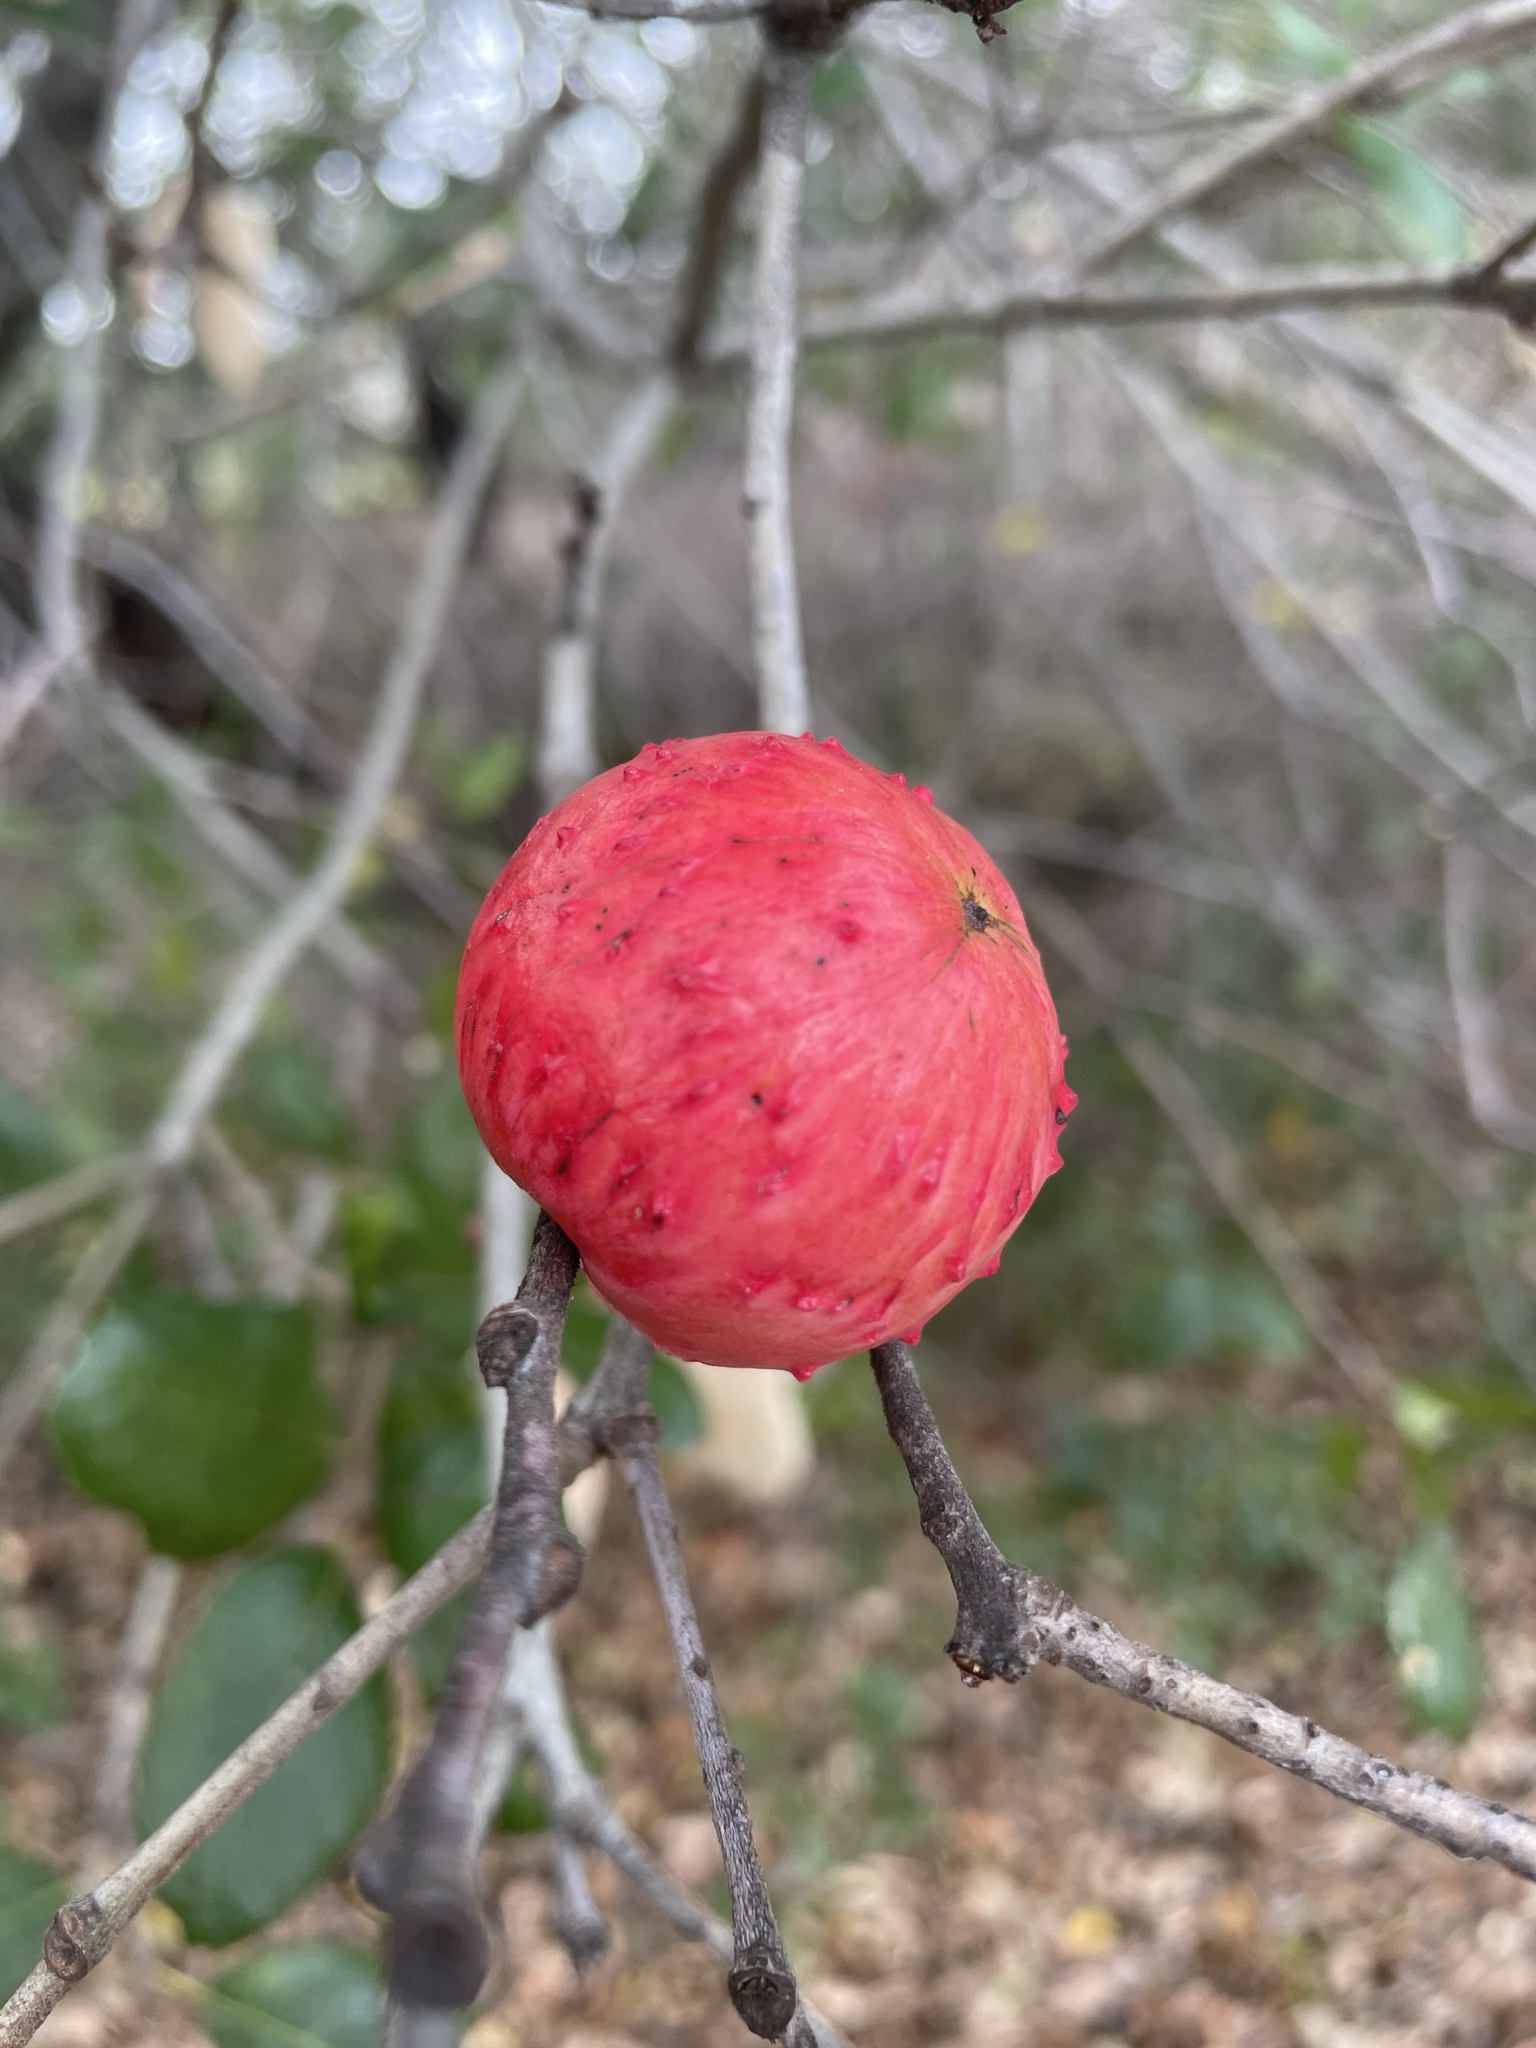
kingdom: Animalia
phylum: Arthropoda
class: Insecta
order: Hymenoptera
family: Cynipidae
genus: Amphibolips
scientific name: Amphibolips quercuspomiformis
